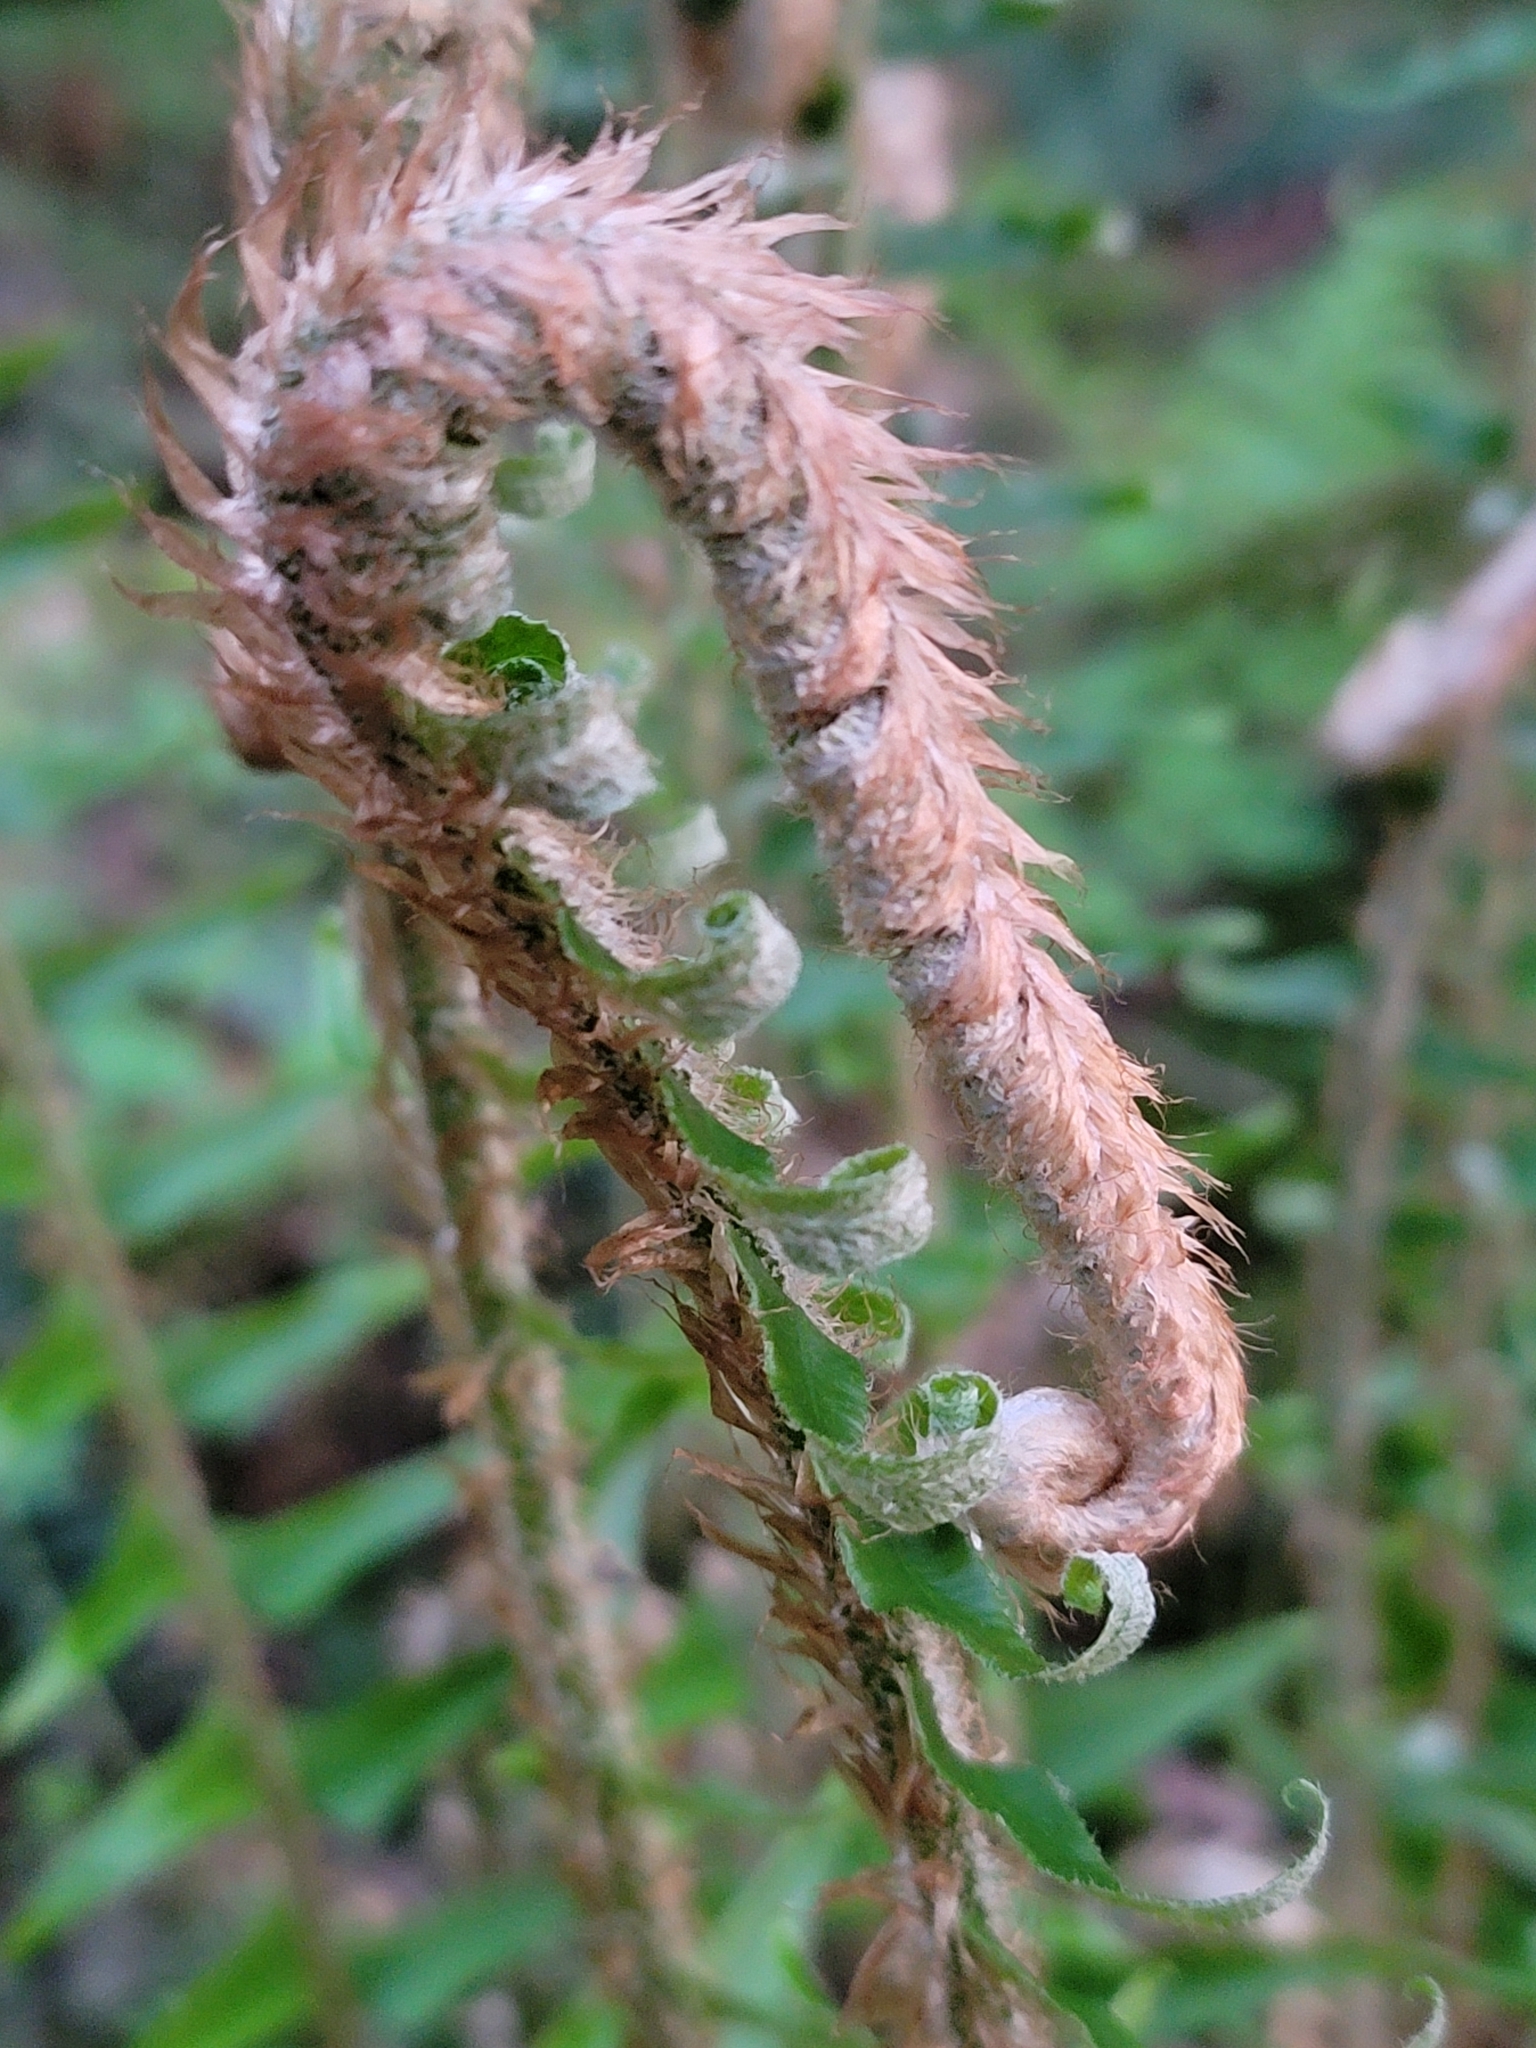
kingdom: Plantae
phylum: Tracheophyta
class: Polypodiopsida
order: Polypodiales
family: Dryopteridaceae
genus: Polystichum
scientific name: Polystichum munitum
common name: Western sword-fern
